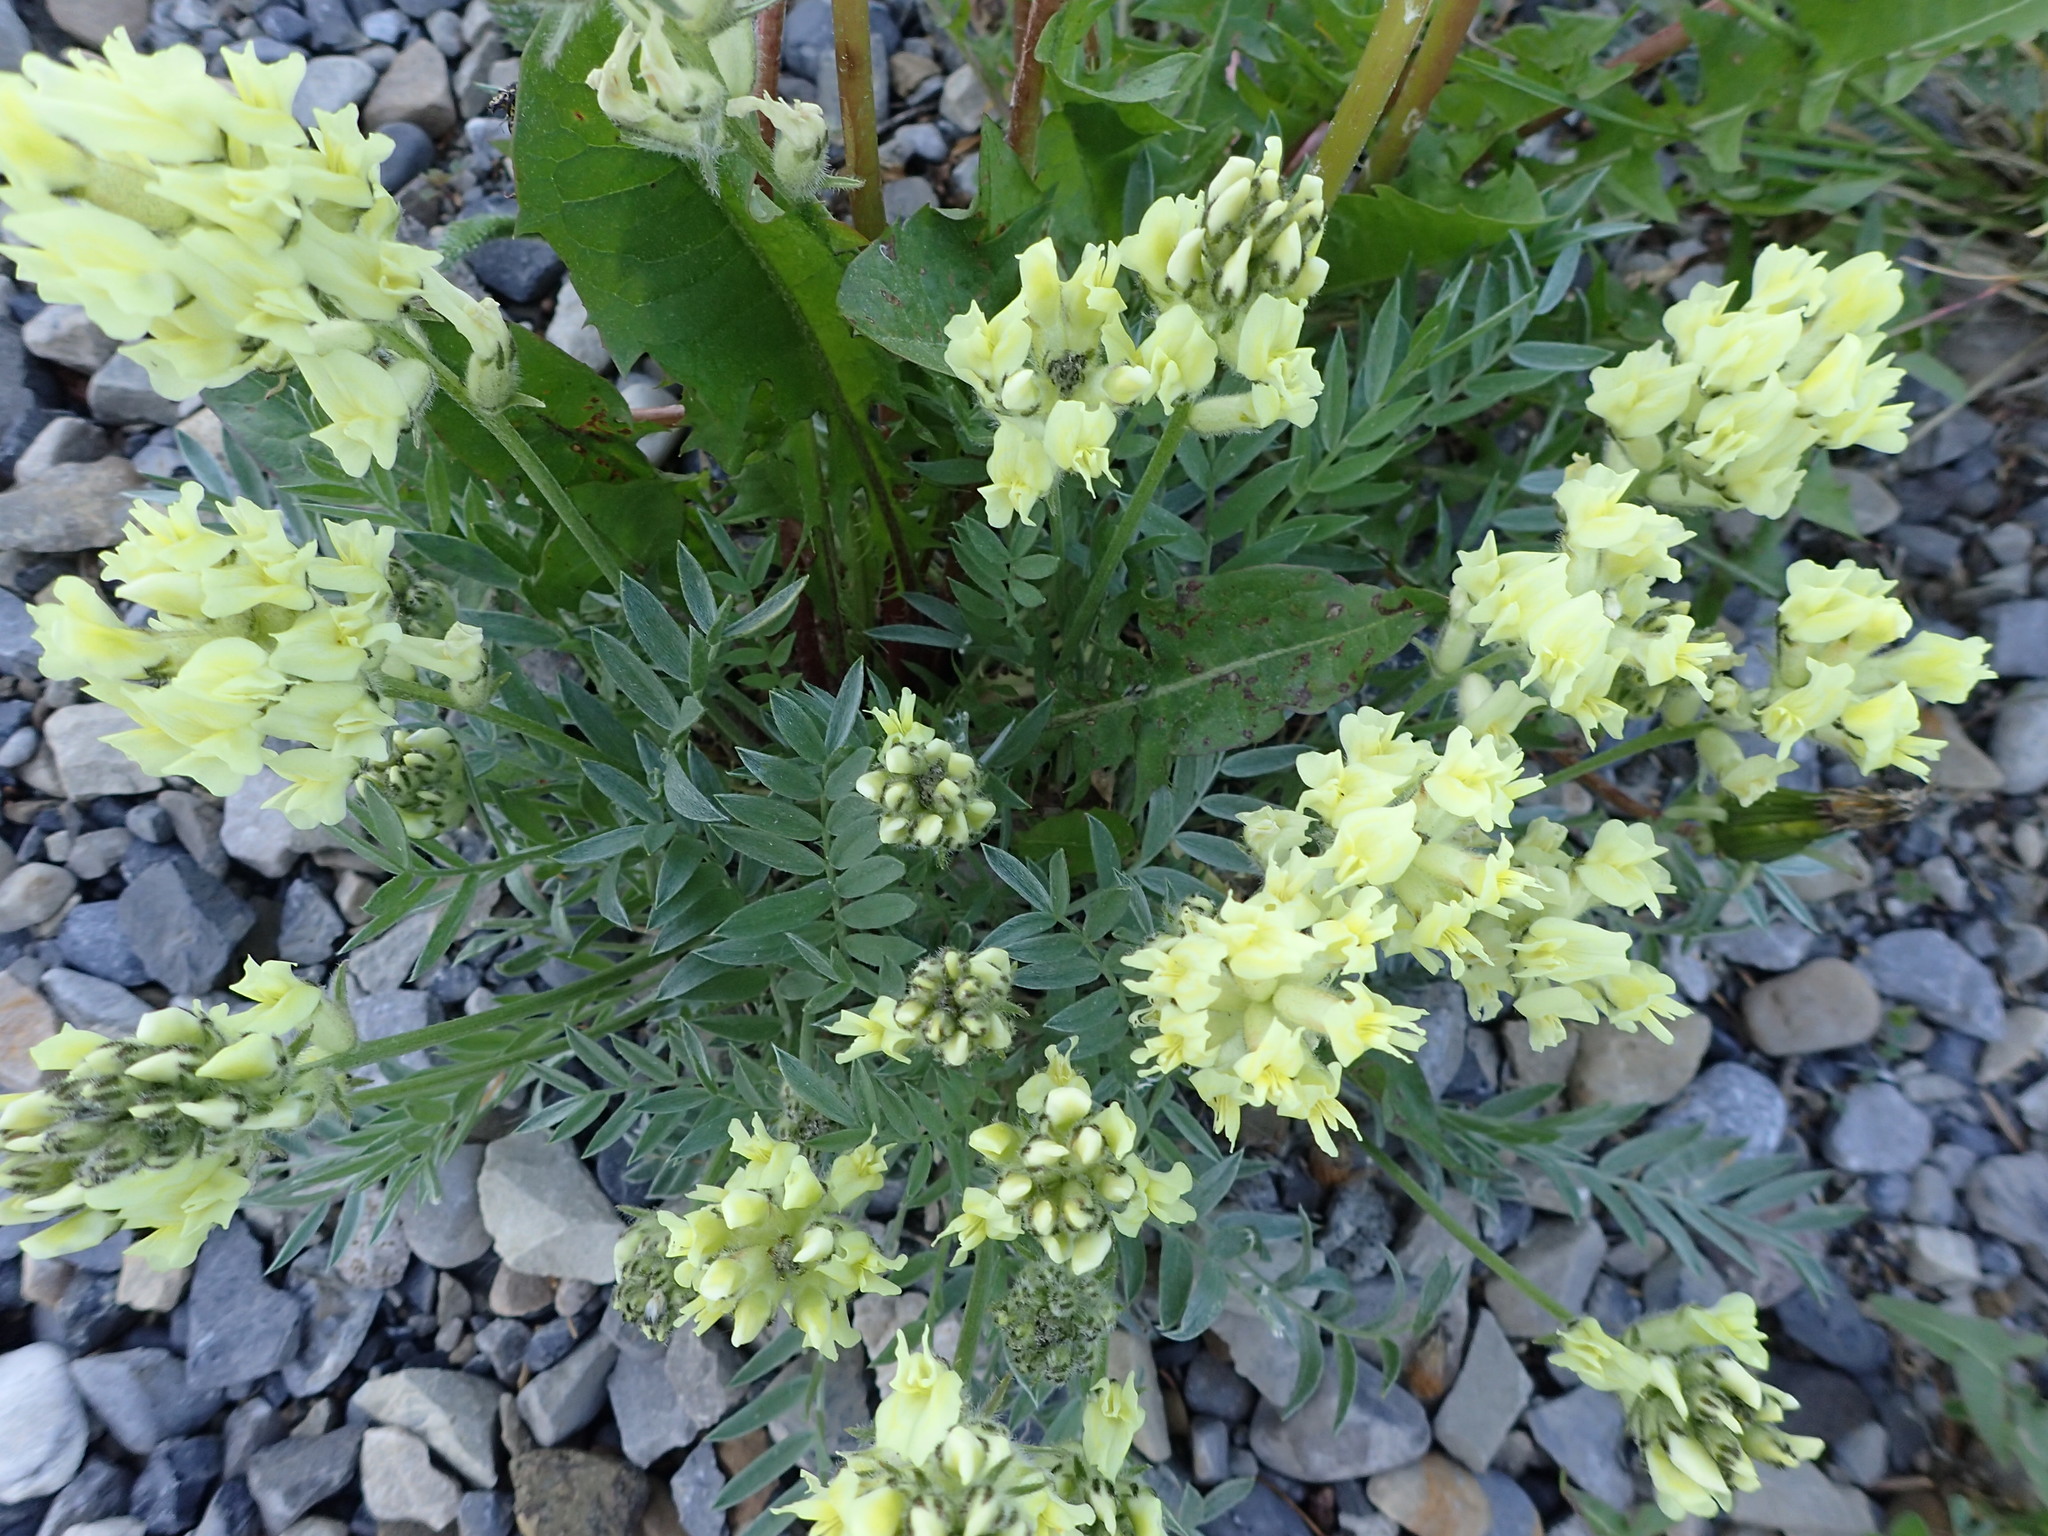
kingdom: Plantae
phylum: Tracheophyta
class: Magnoliopsida
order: Fabales
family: Fabaceae
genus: Oxytropis
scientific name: Oxytropis sericea
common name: Silky locoweed
